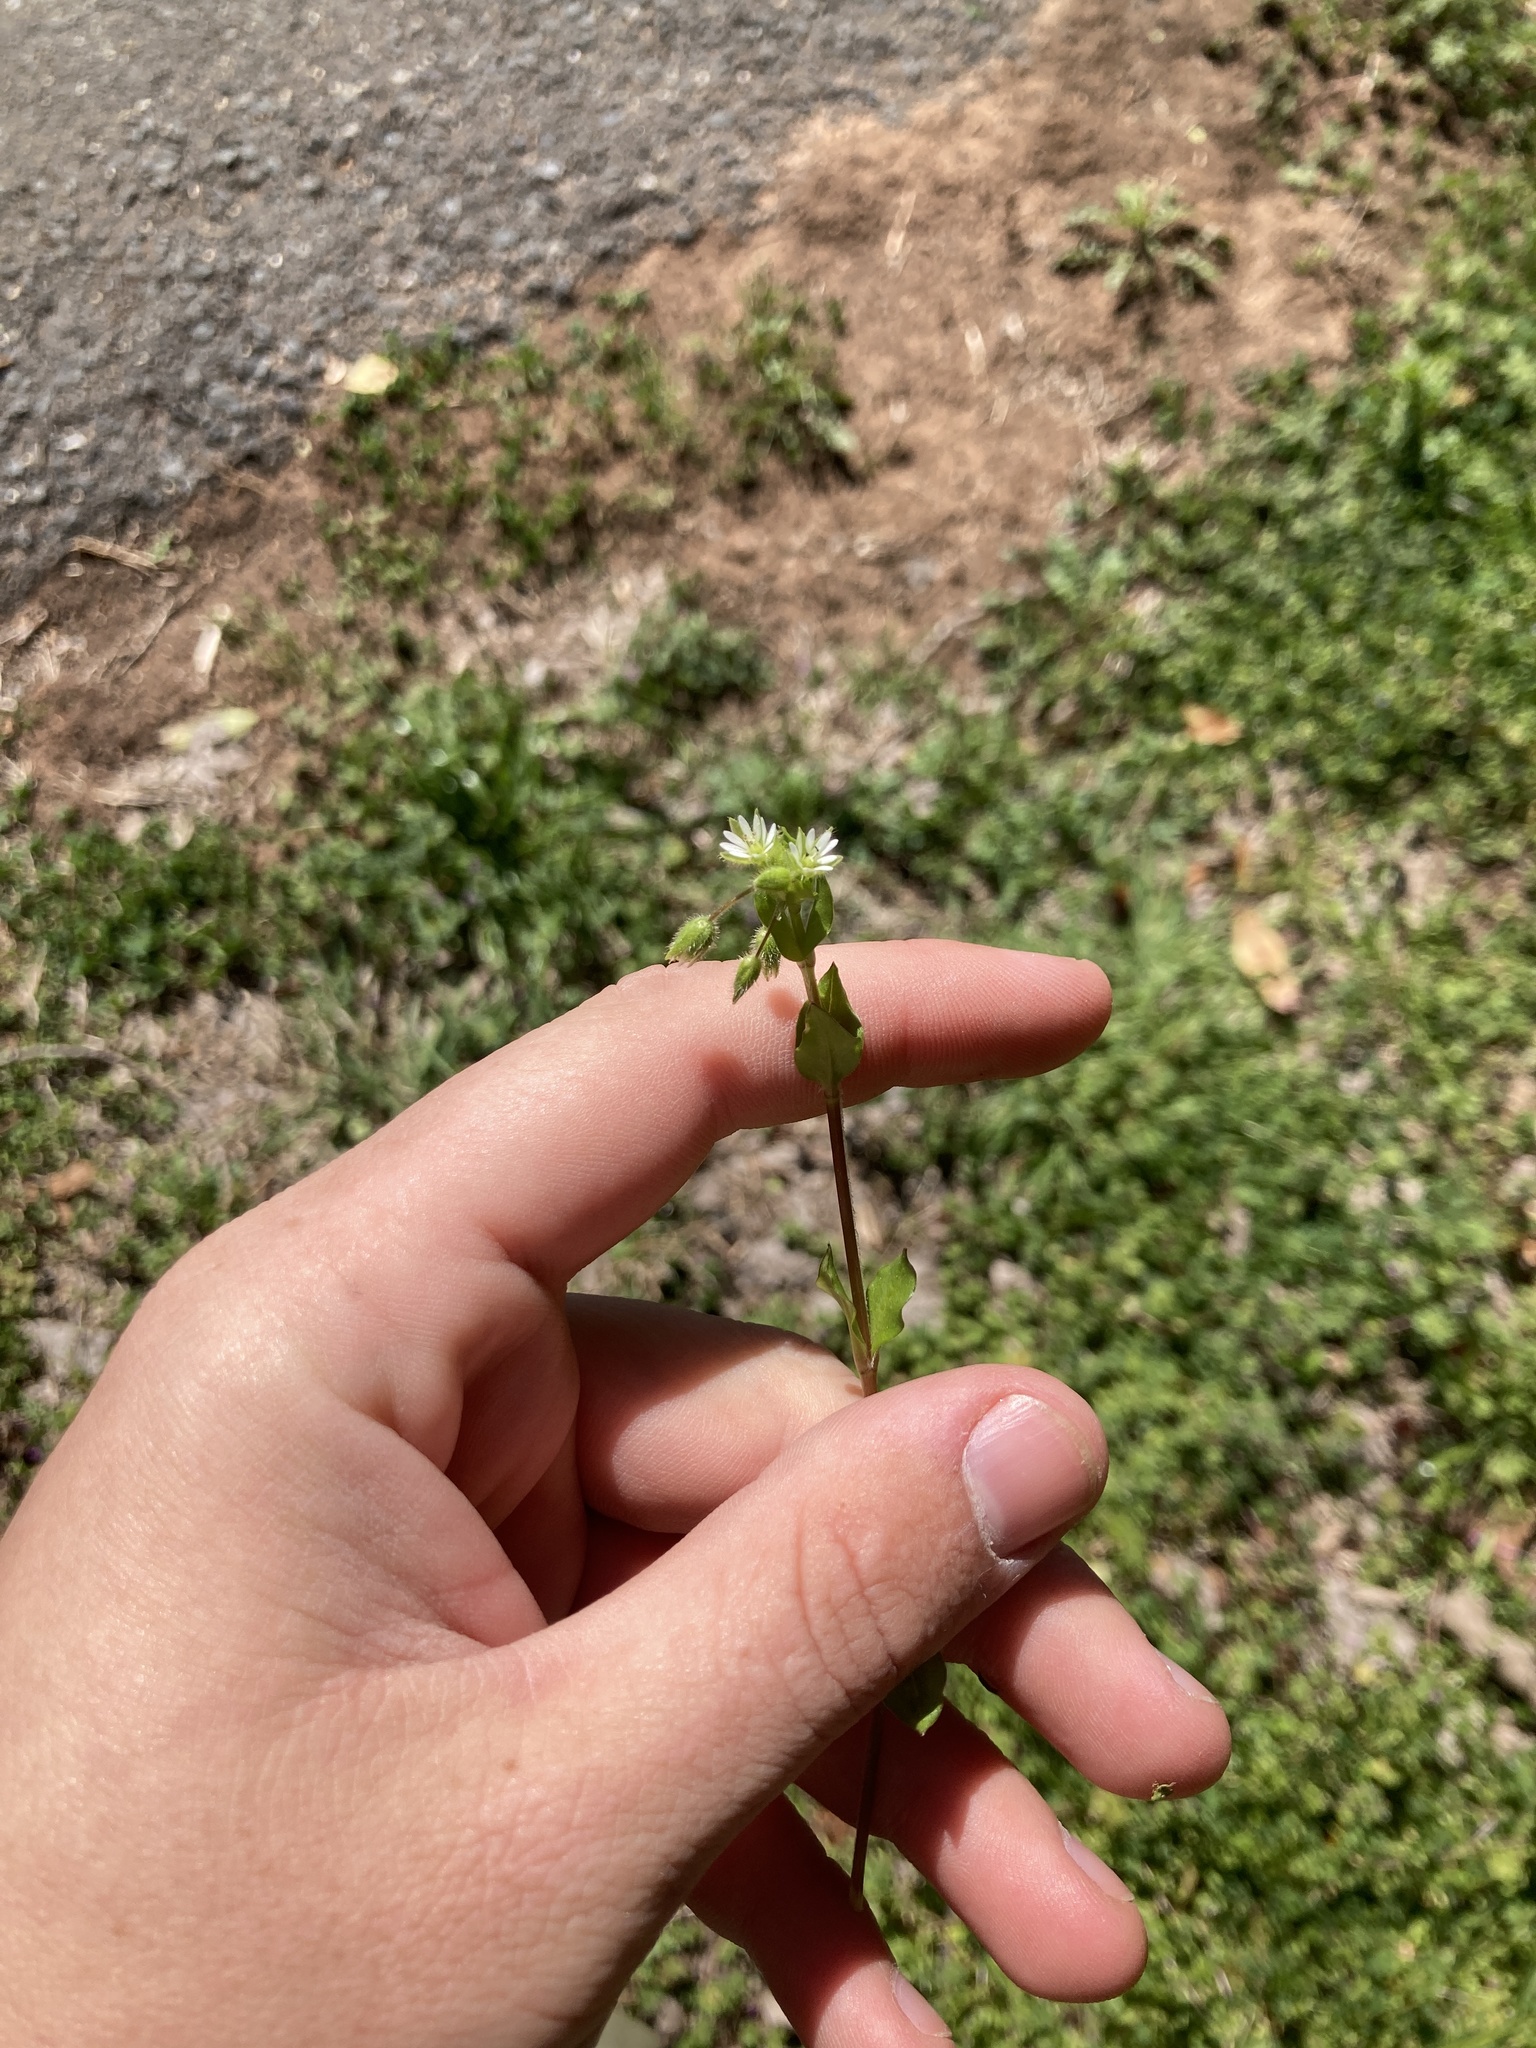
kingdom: Plantae
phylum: Tracheophyta
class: Magnoliopsida
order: Caryophyllales
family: Caryophyllaceae
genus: Stellaria
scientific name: Stellaria media
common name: Common chickweed
